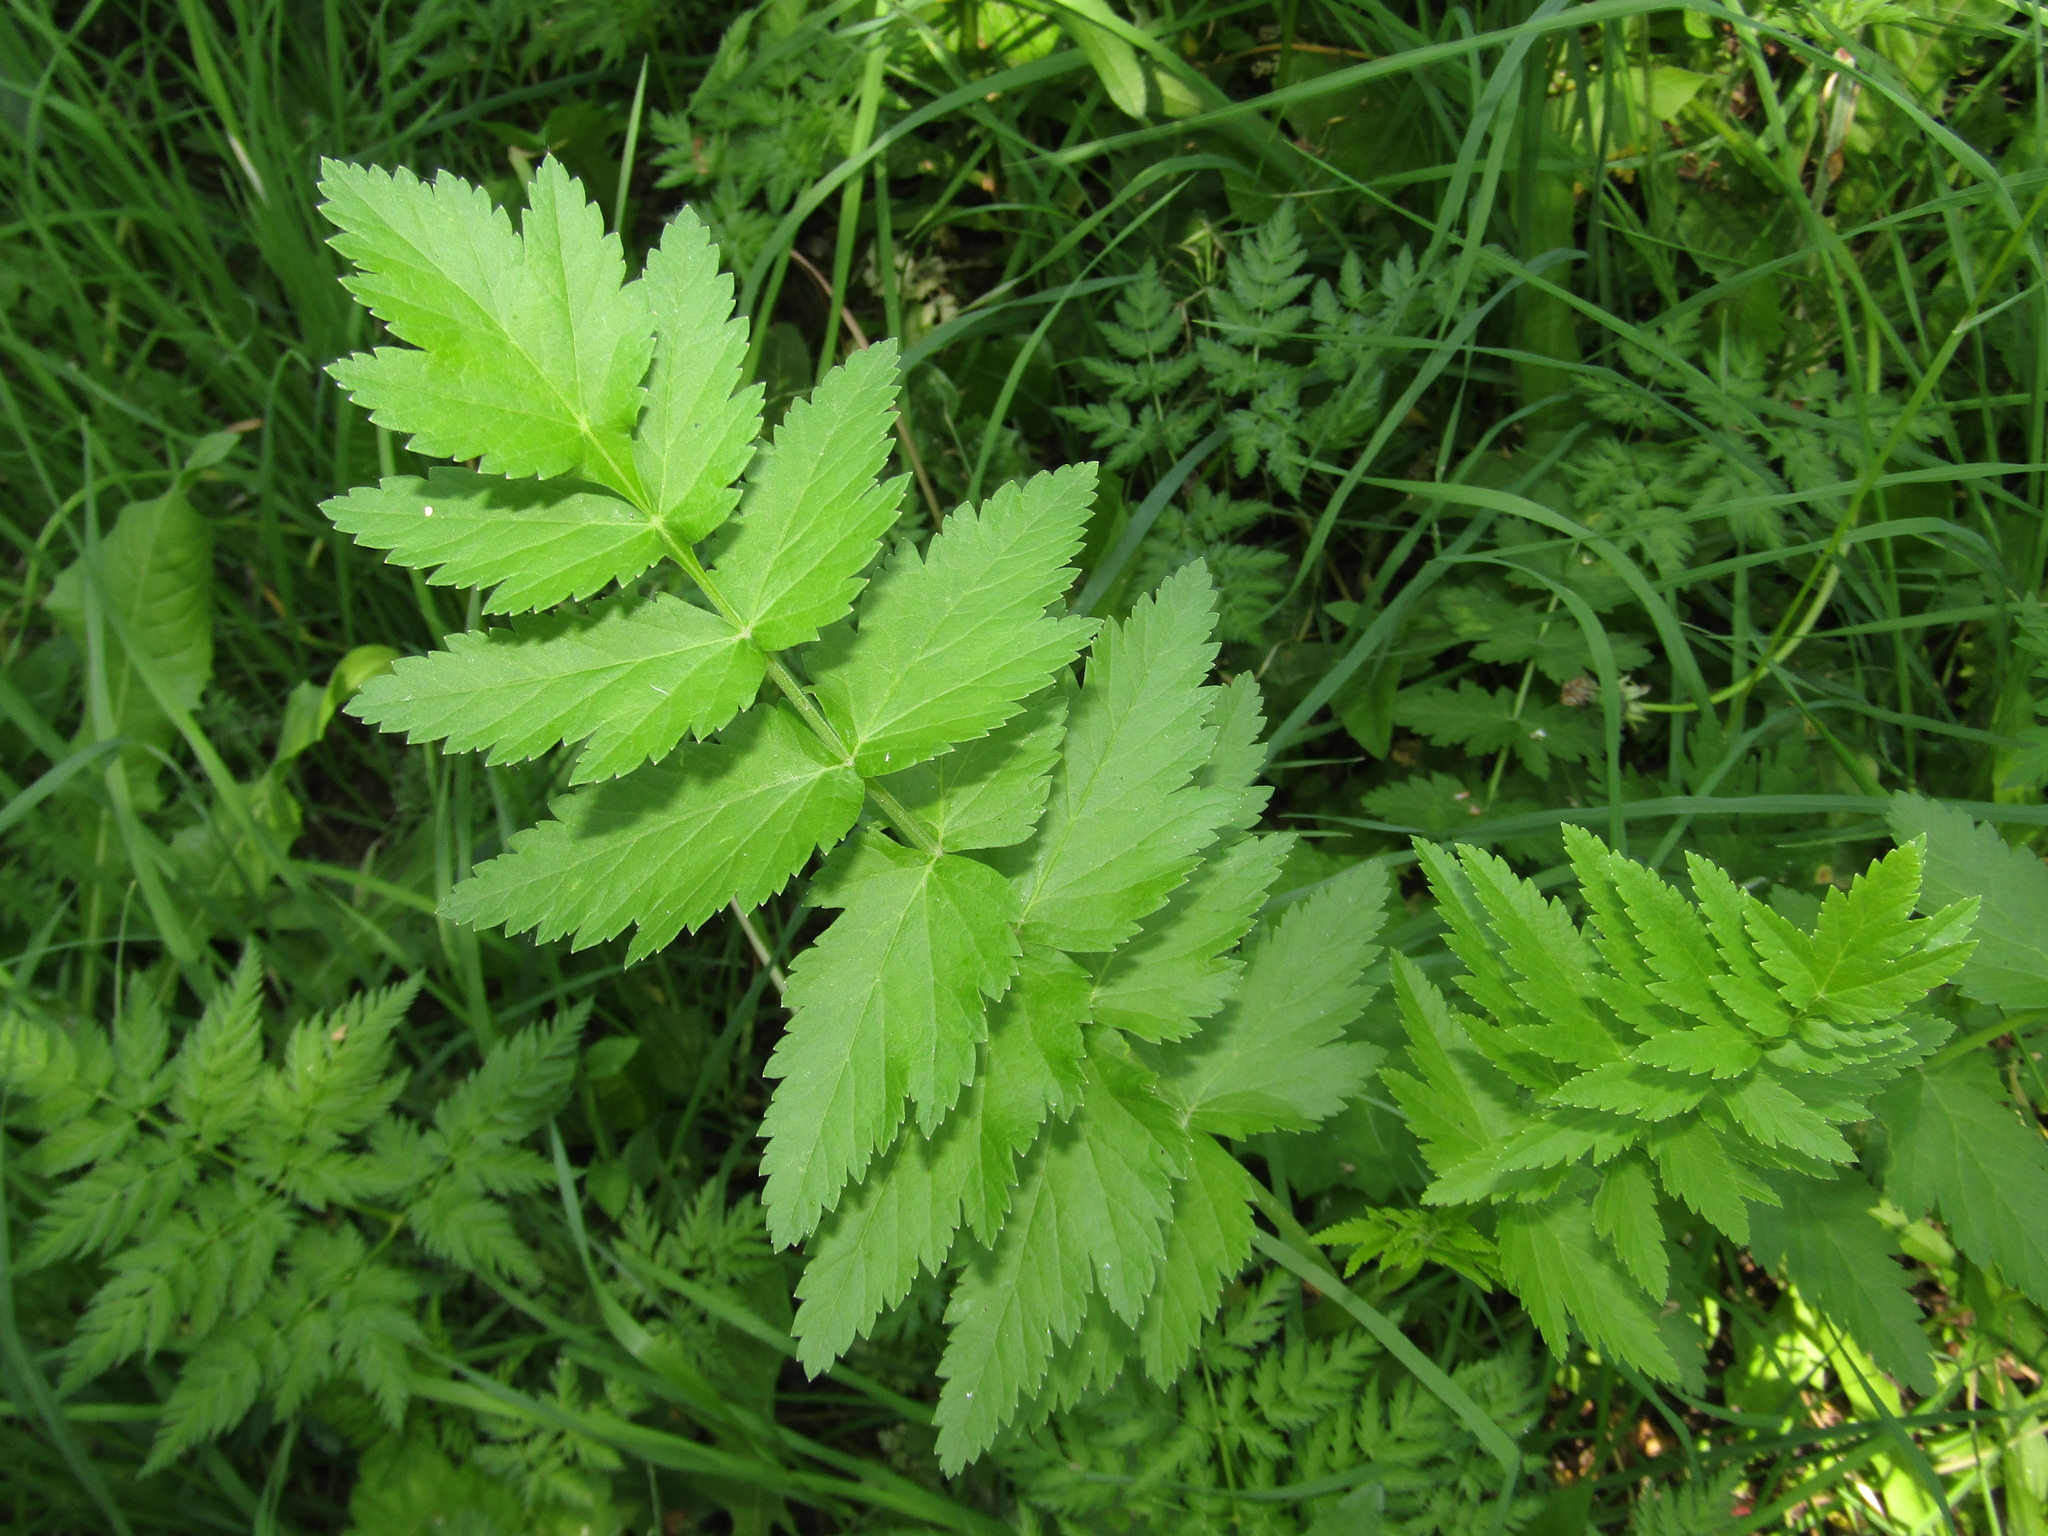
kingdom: Plantae
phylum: Tracheophyta
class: Magnoliopsida
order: Apiales
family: Apiaceae
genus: Pastinaca
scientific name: Pastinaca sativa
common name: Wild parsnip
